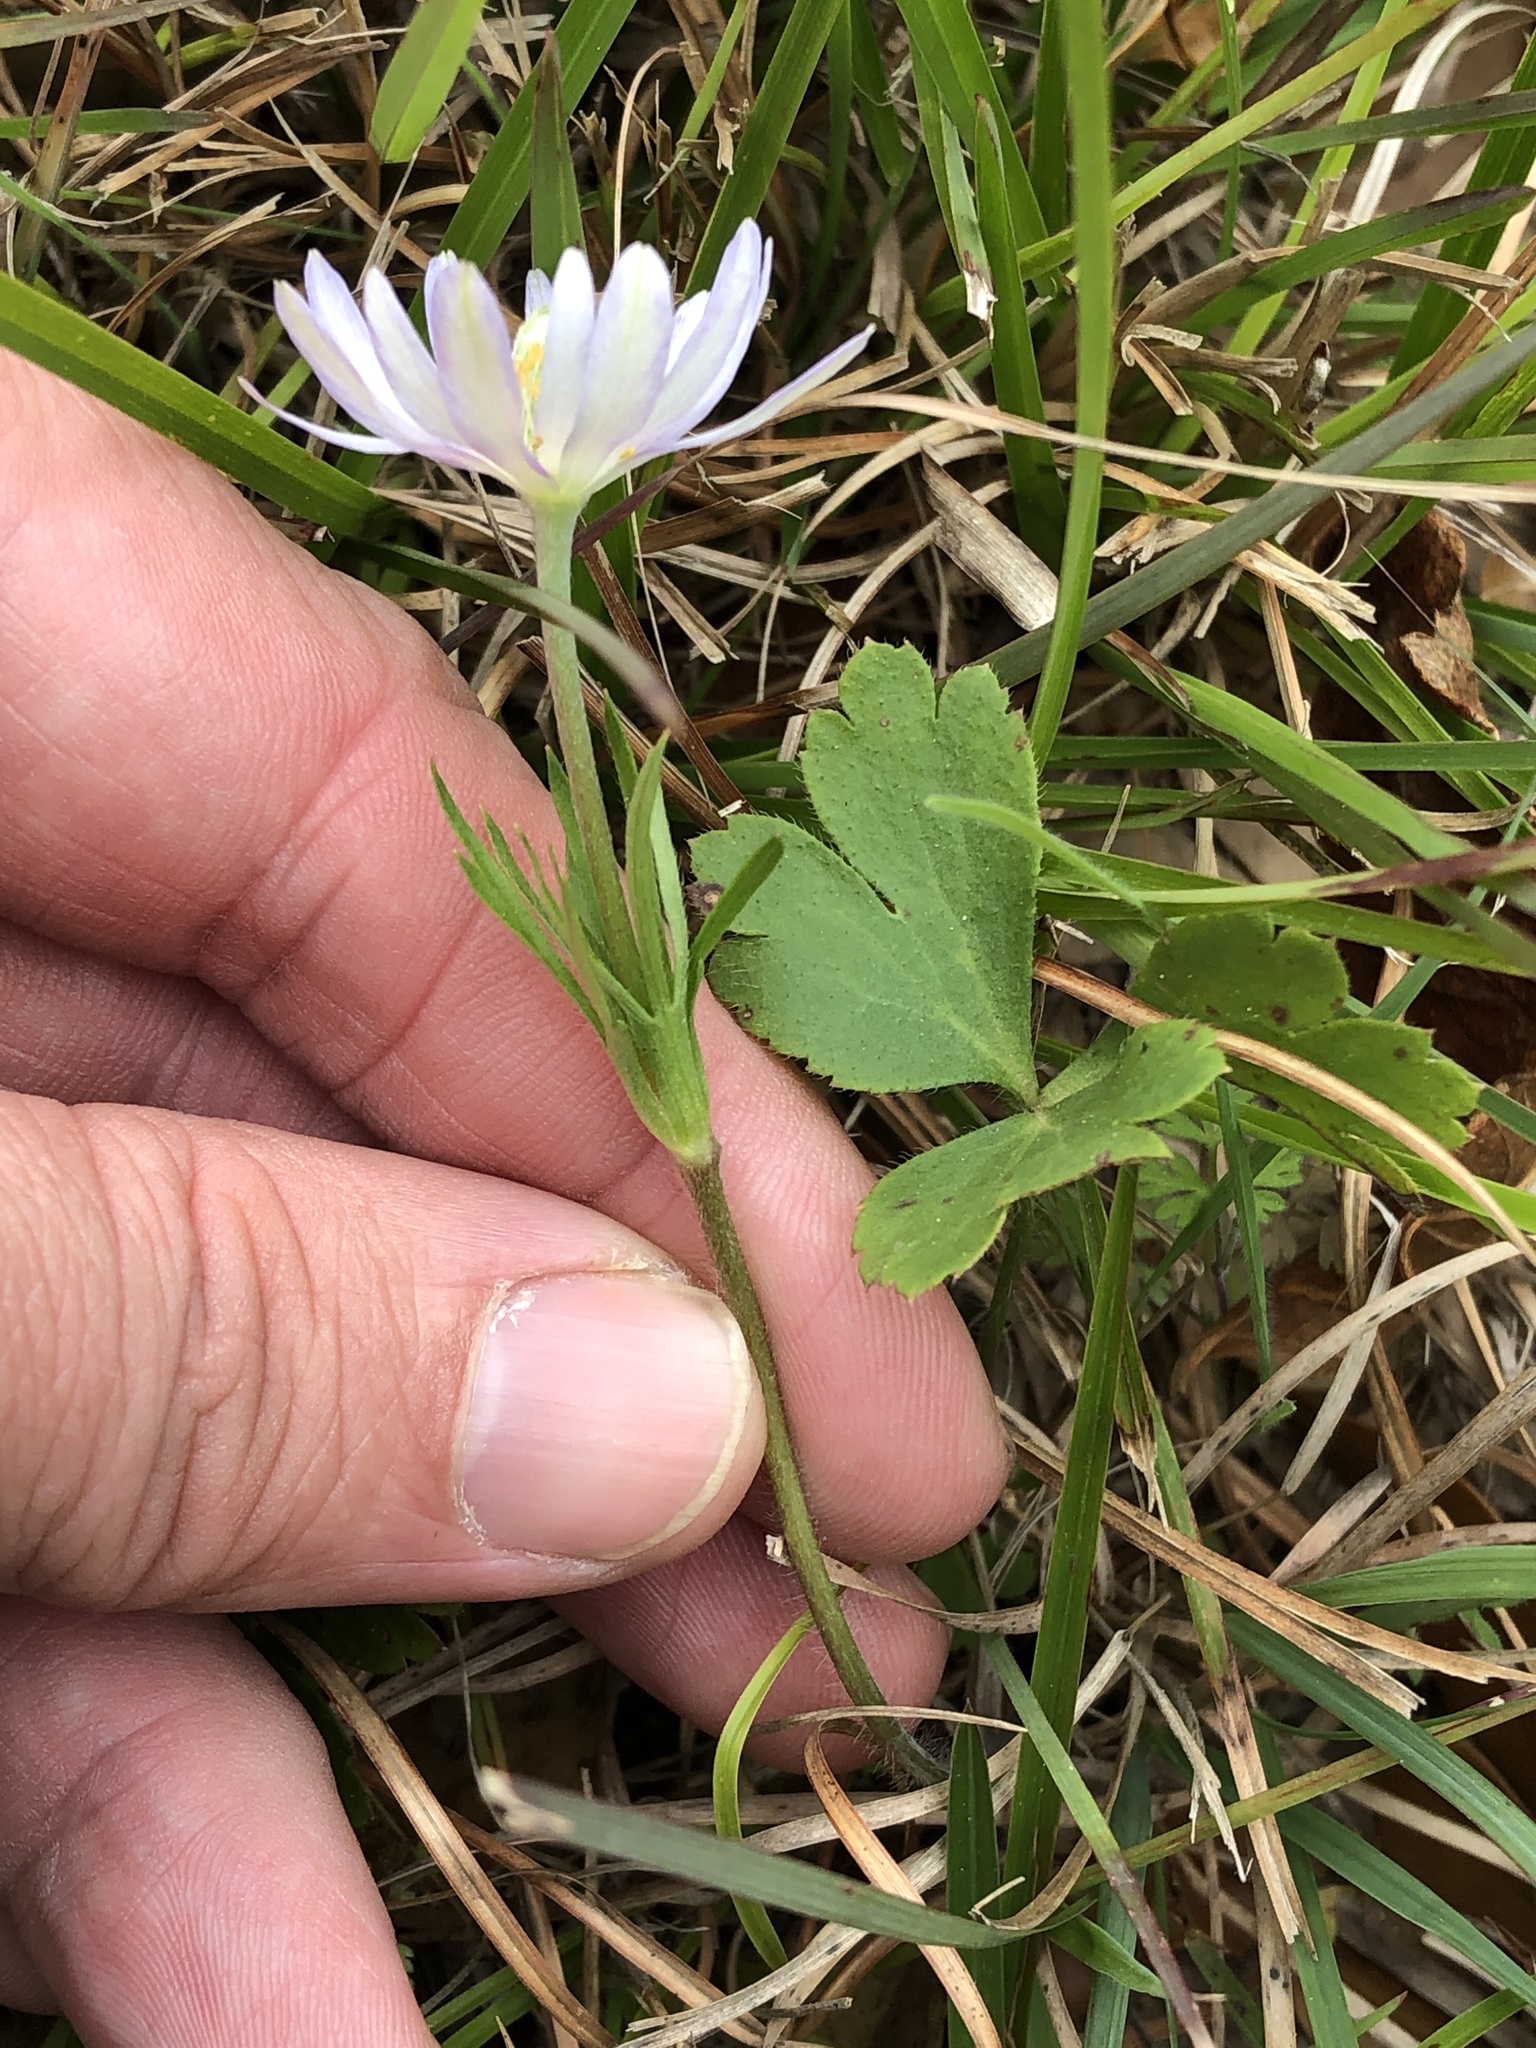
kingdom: Plantae
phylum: Tracheophyta
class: Magnoliopsida
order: Ranunculales
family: Ranunculaceae
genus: Anemone
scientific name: Anemone berlandieri
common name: Ten-petal anemone
